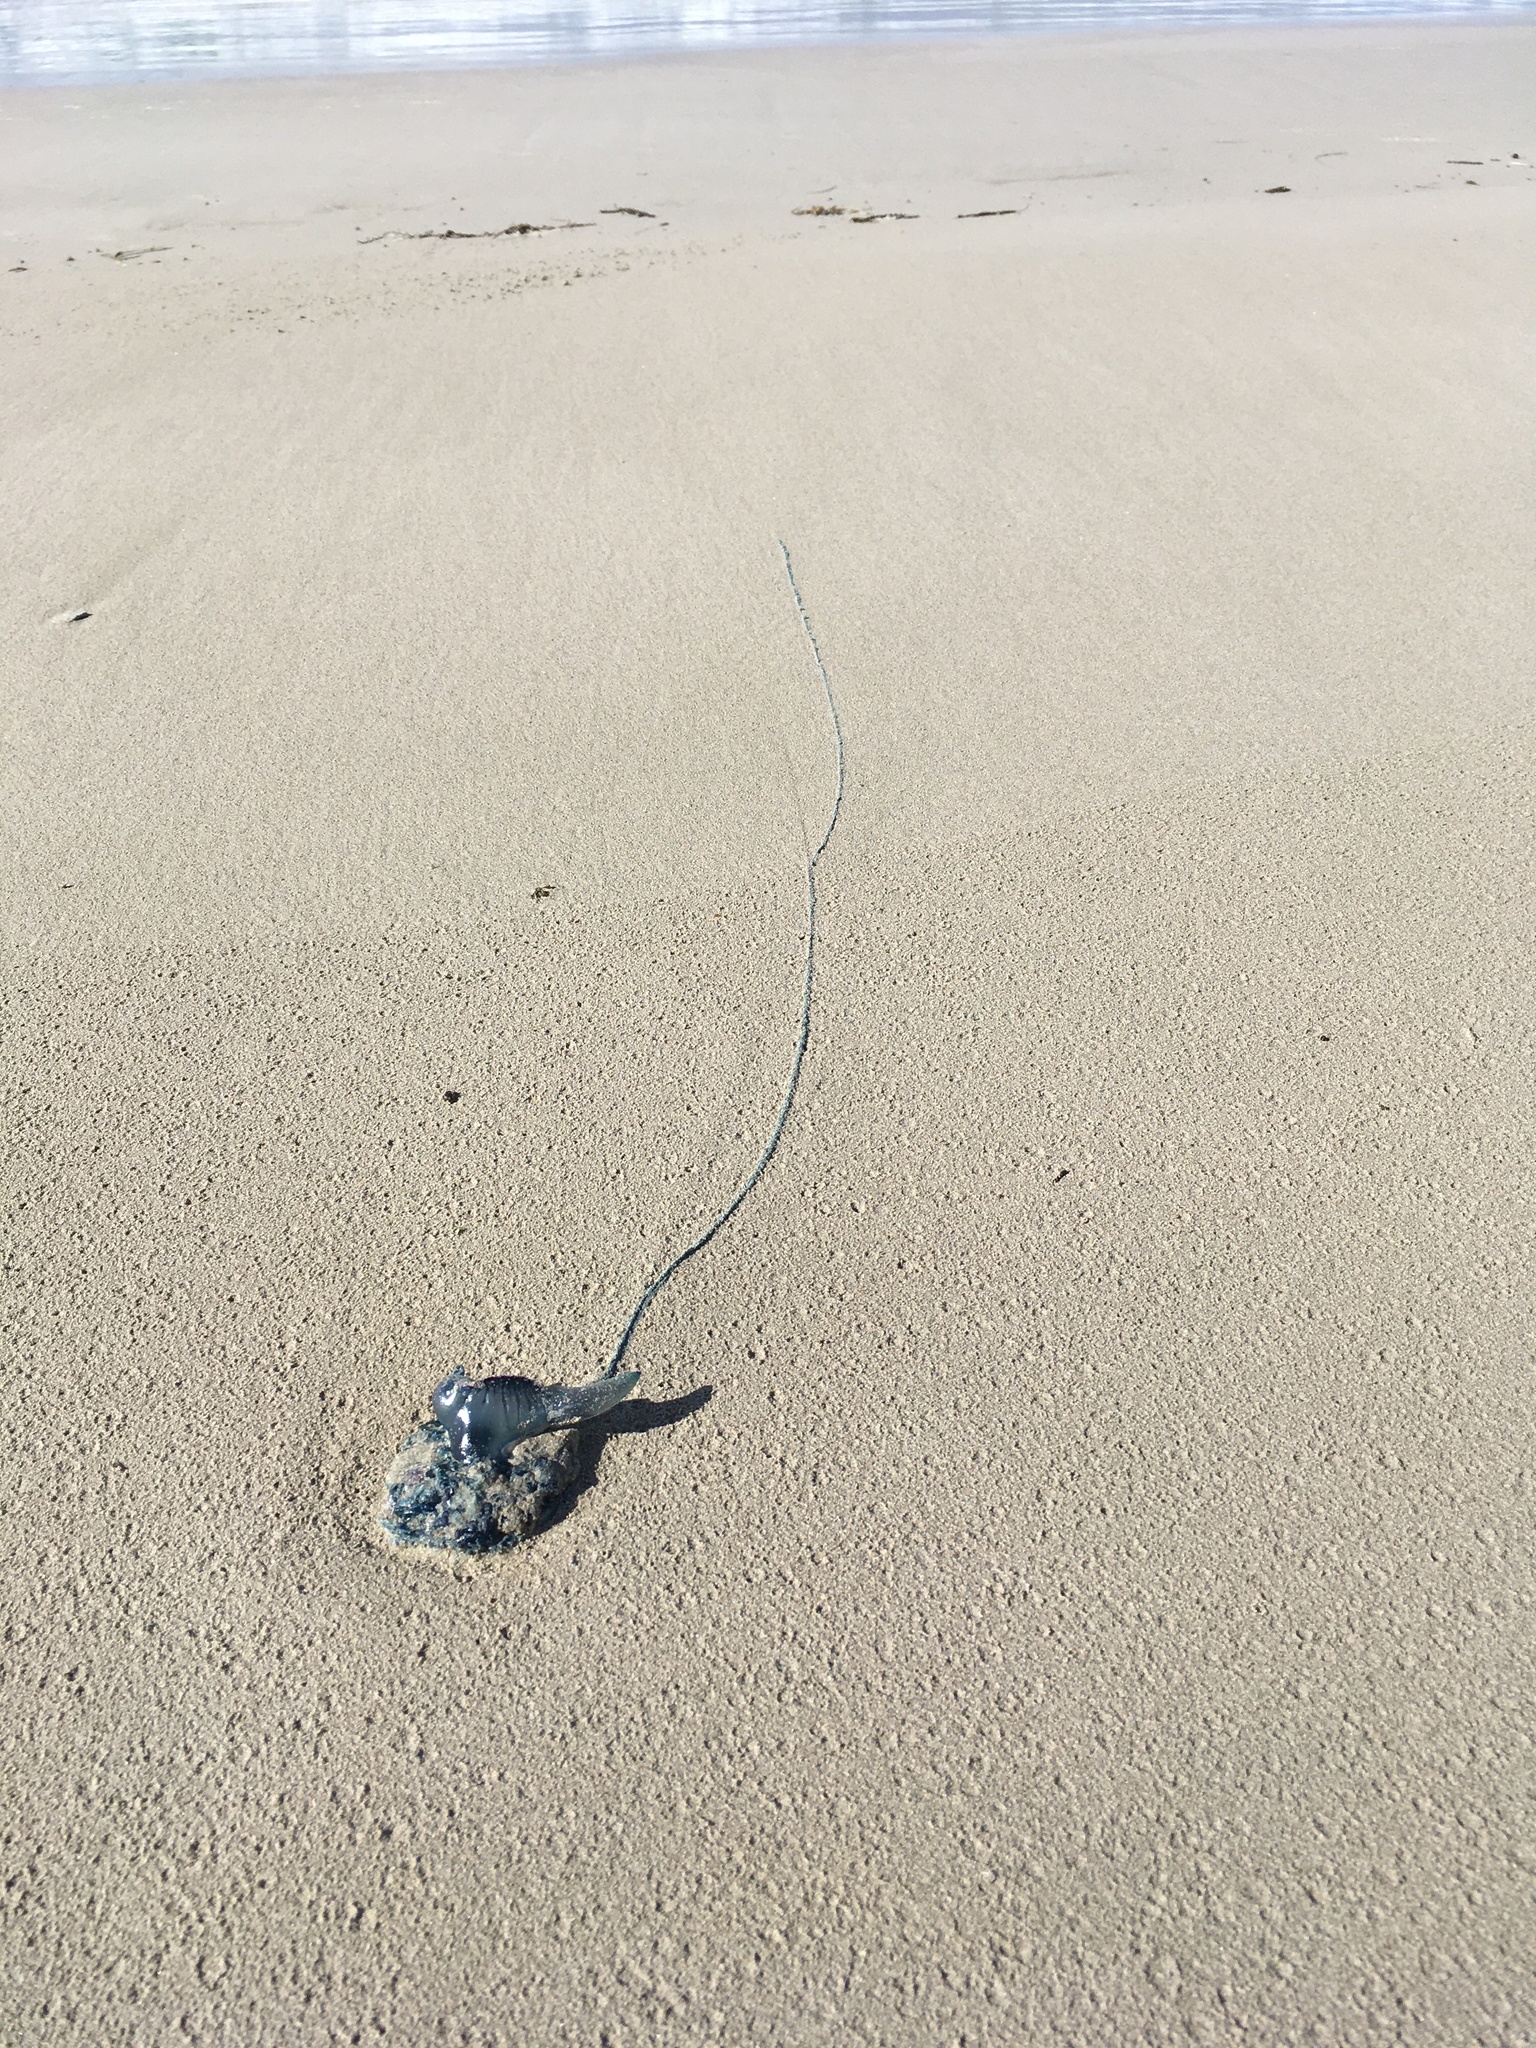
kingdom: Animalia
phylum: Cnidaria
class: Hydrozoa
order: Siphonophorae
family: Physaliidae
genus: Physalia
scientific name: Physalia physalis
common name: Portuguese man-of-war
